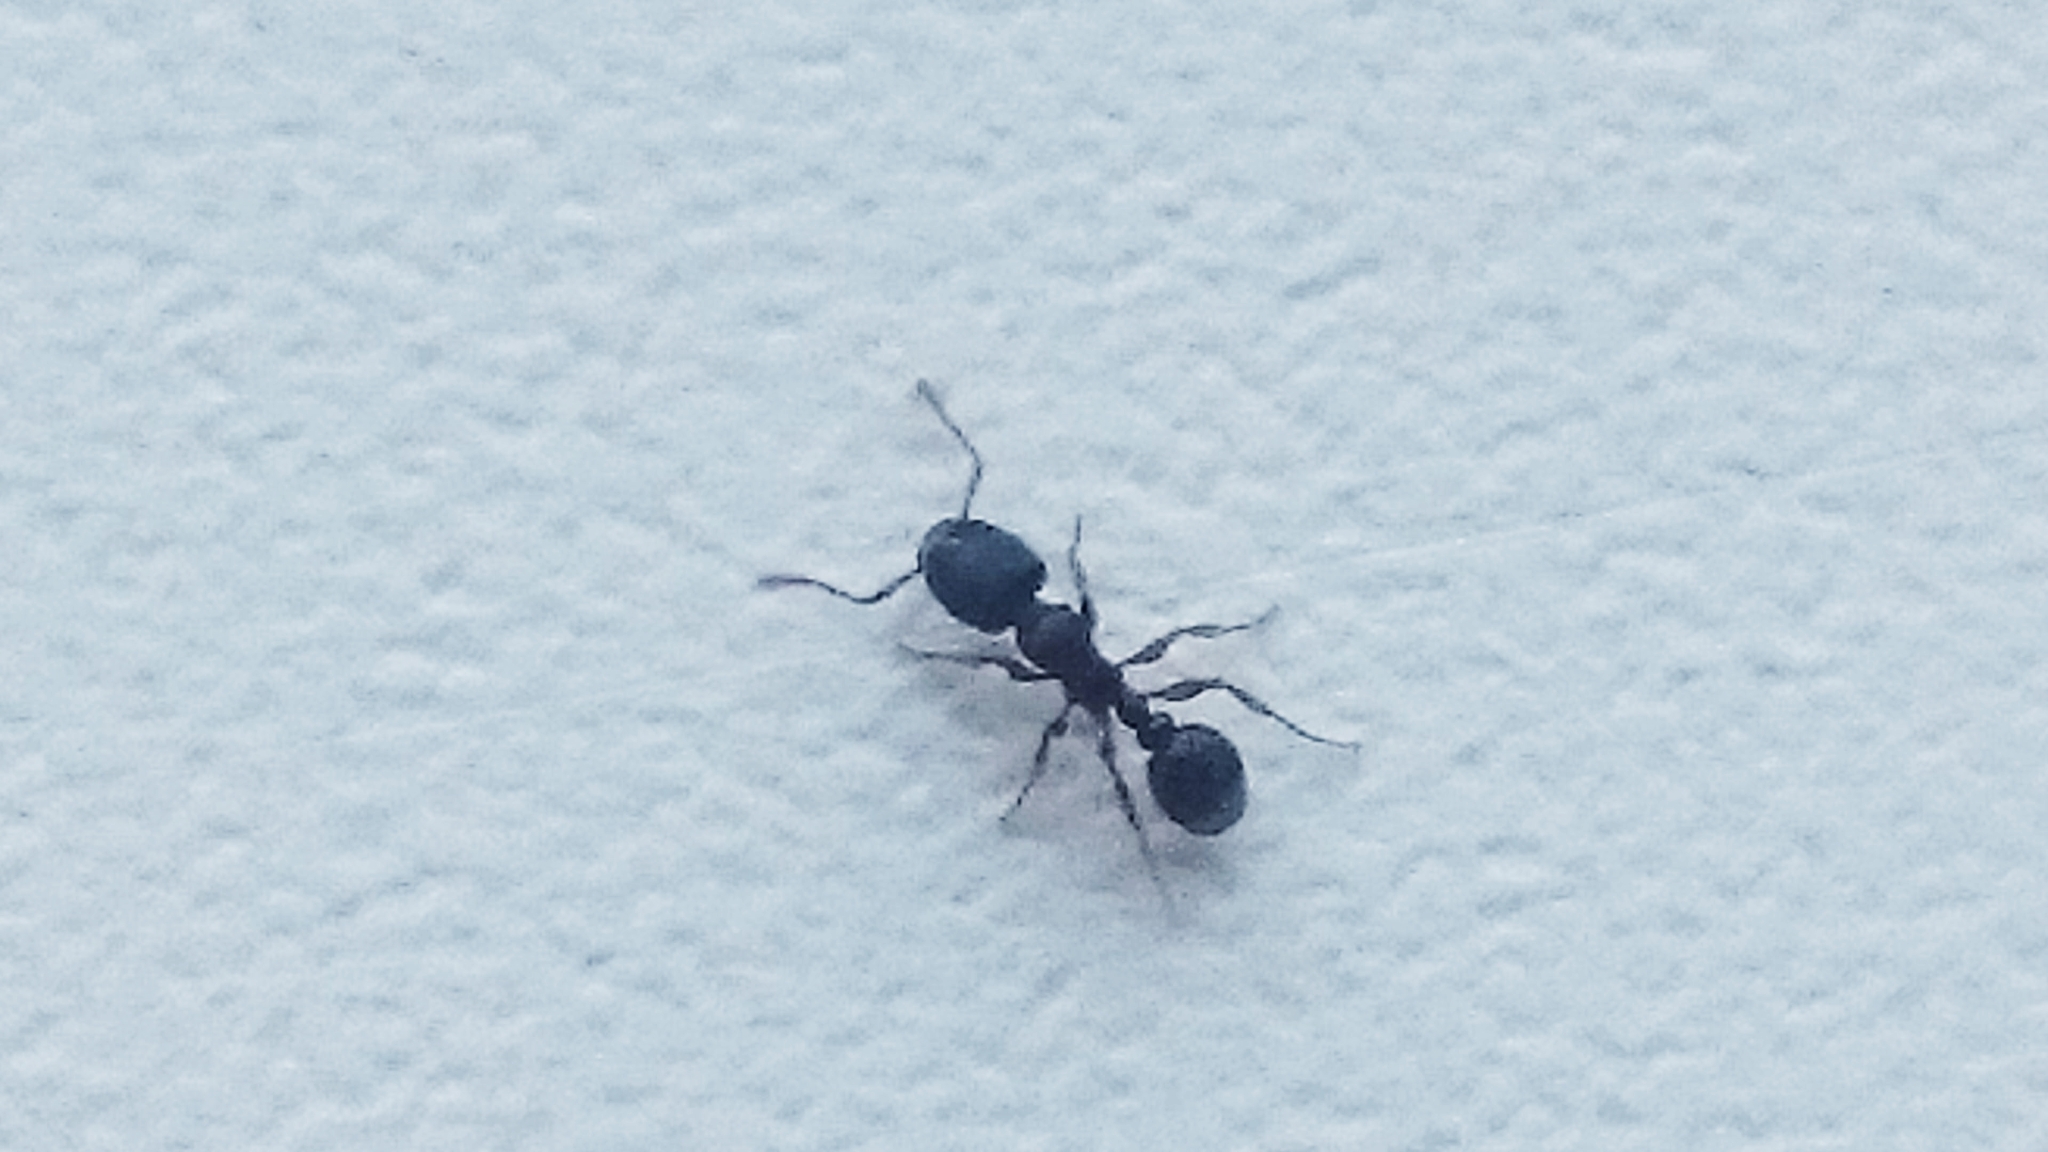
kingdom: Animalia
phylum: Arthropoda
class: Insecta
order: Hymenoptera
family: Formicidae
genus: Tetramorium
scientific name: Tetramorium
